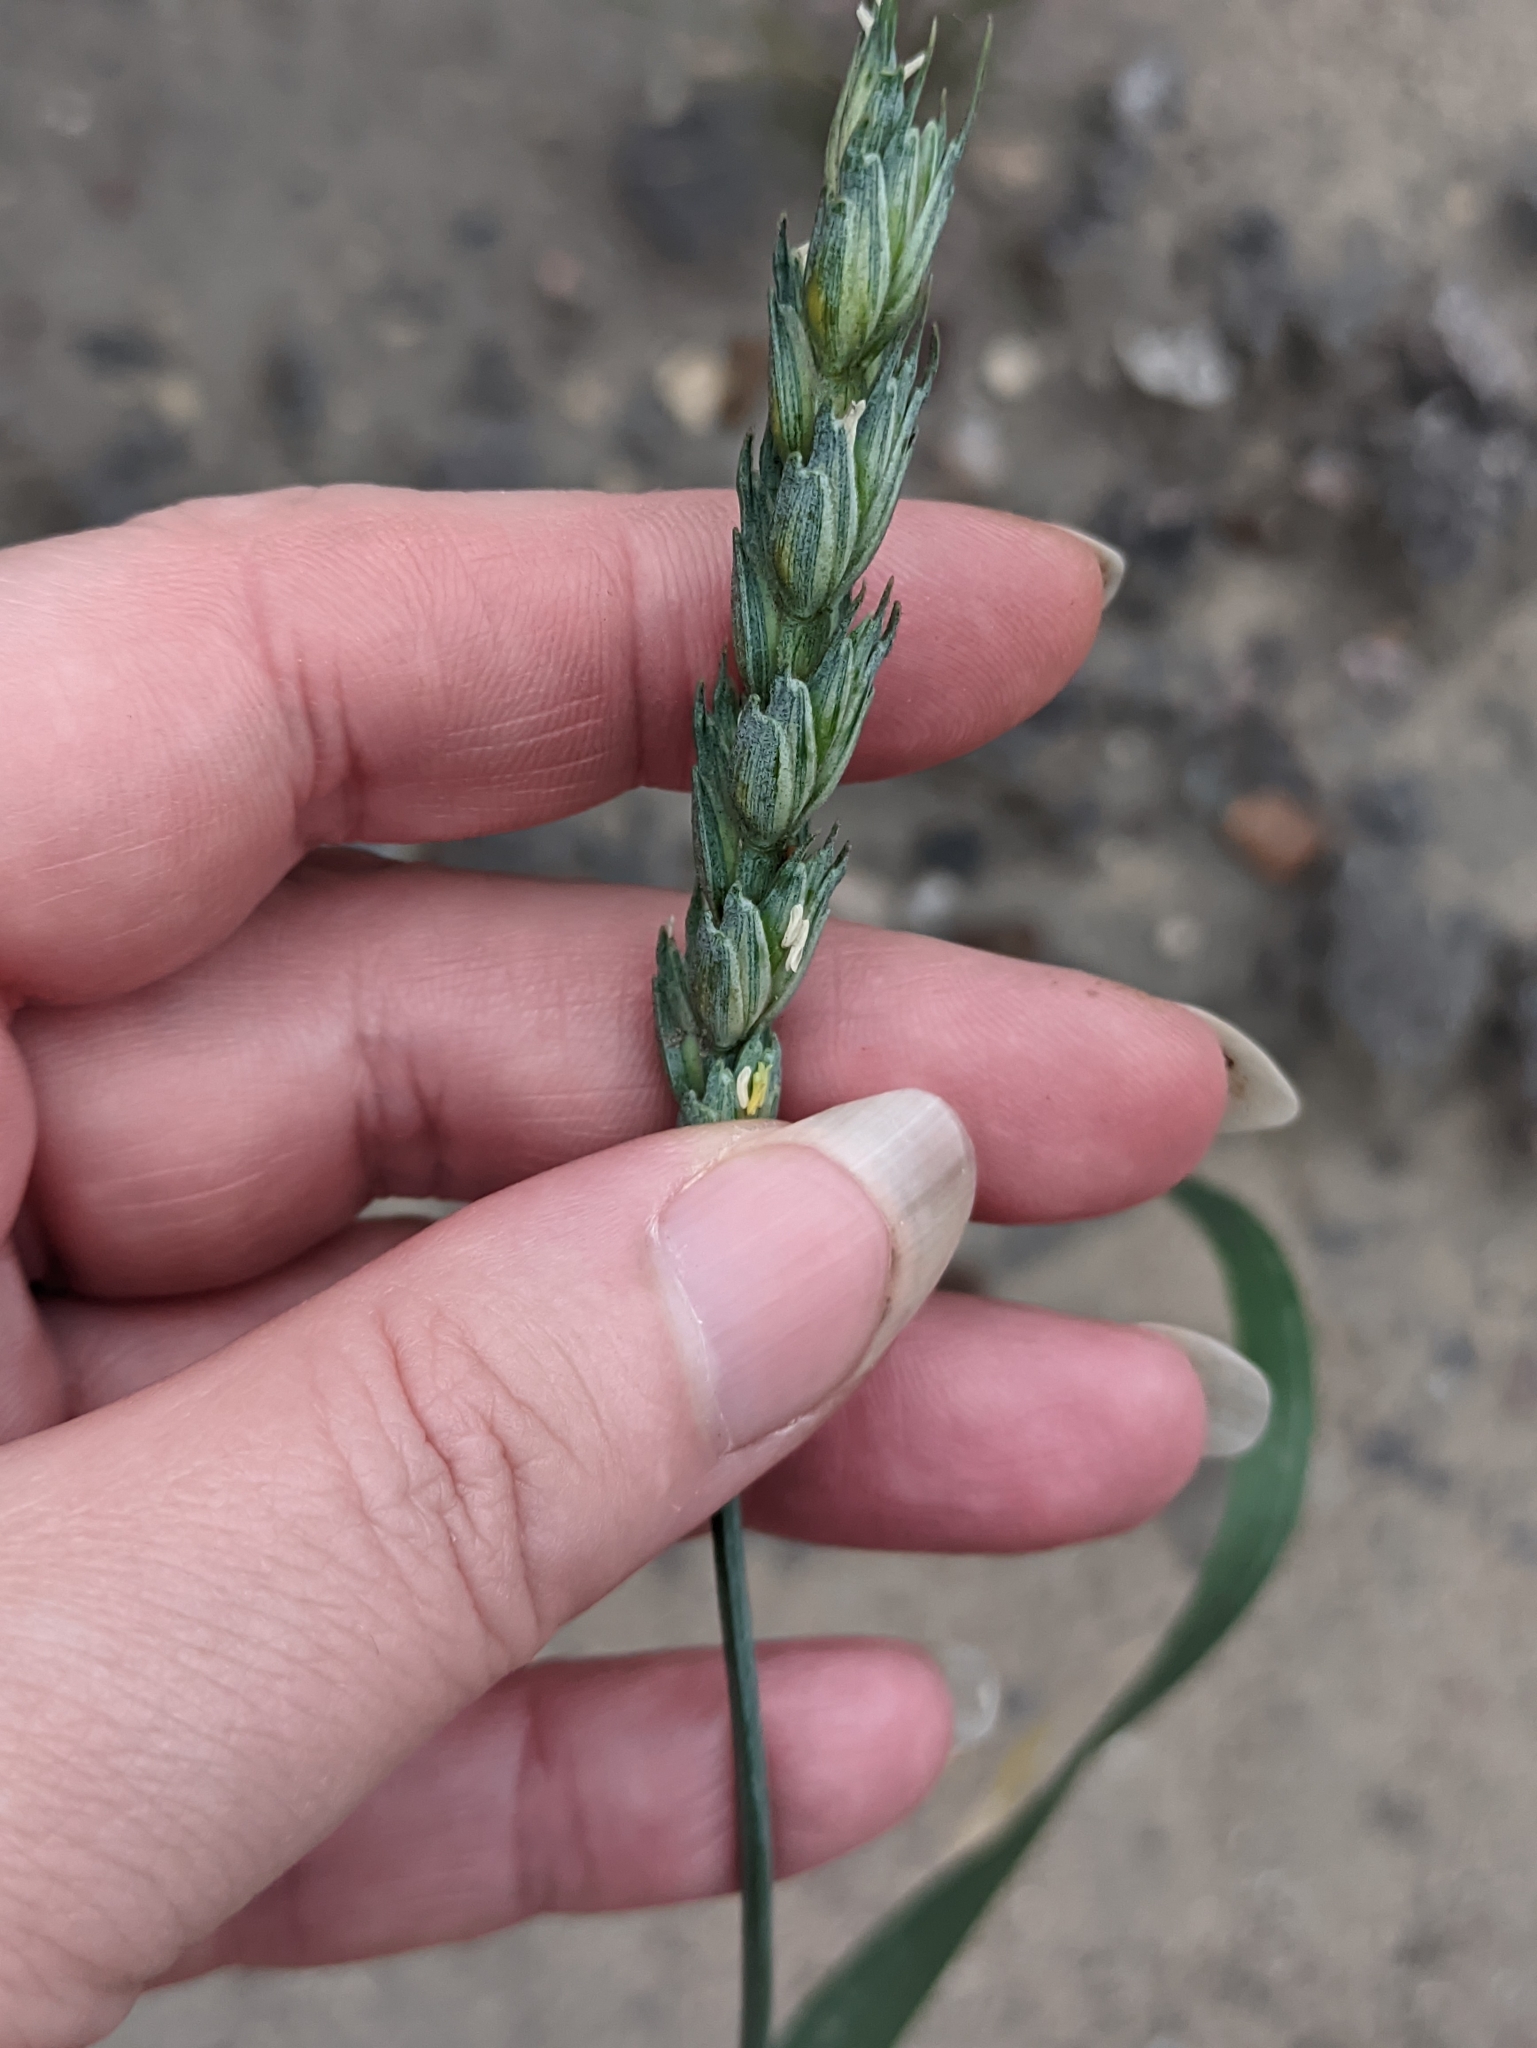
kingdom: Plantae
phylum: Tracheophyta
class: Liliopsida
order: Poales
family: Poaceae
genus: Triticum
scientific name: Triticum aestivum
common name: Common wheat
